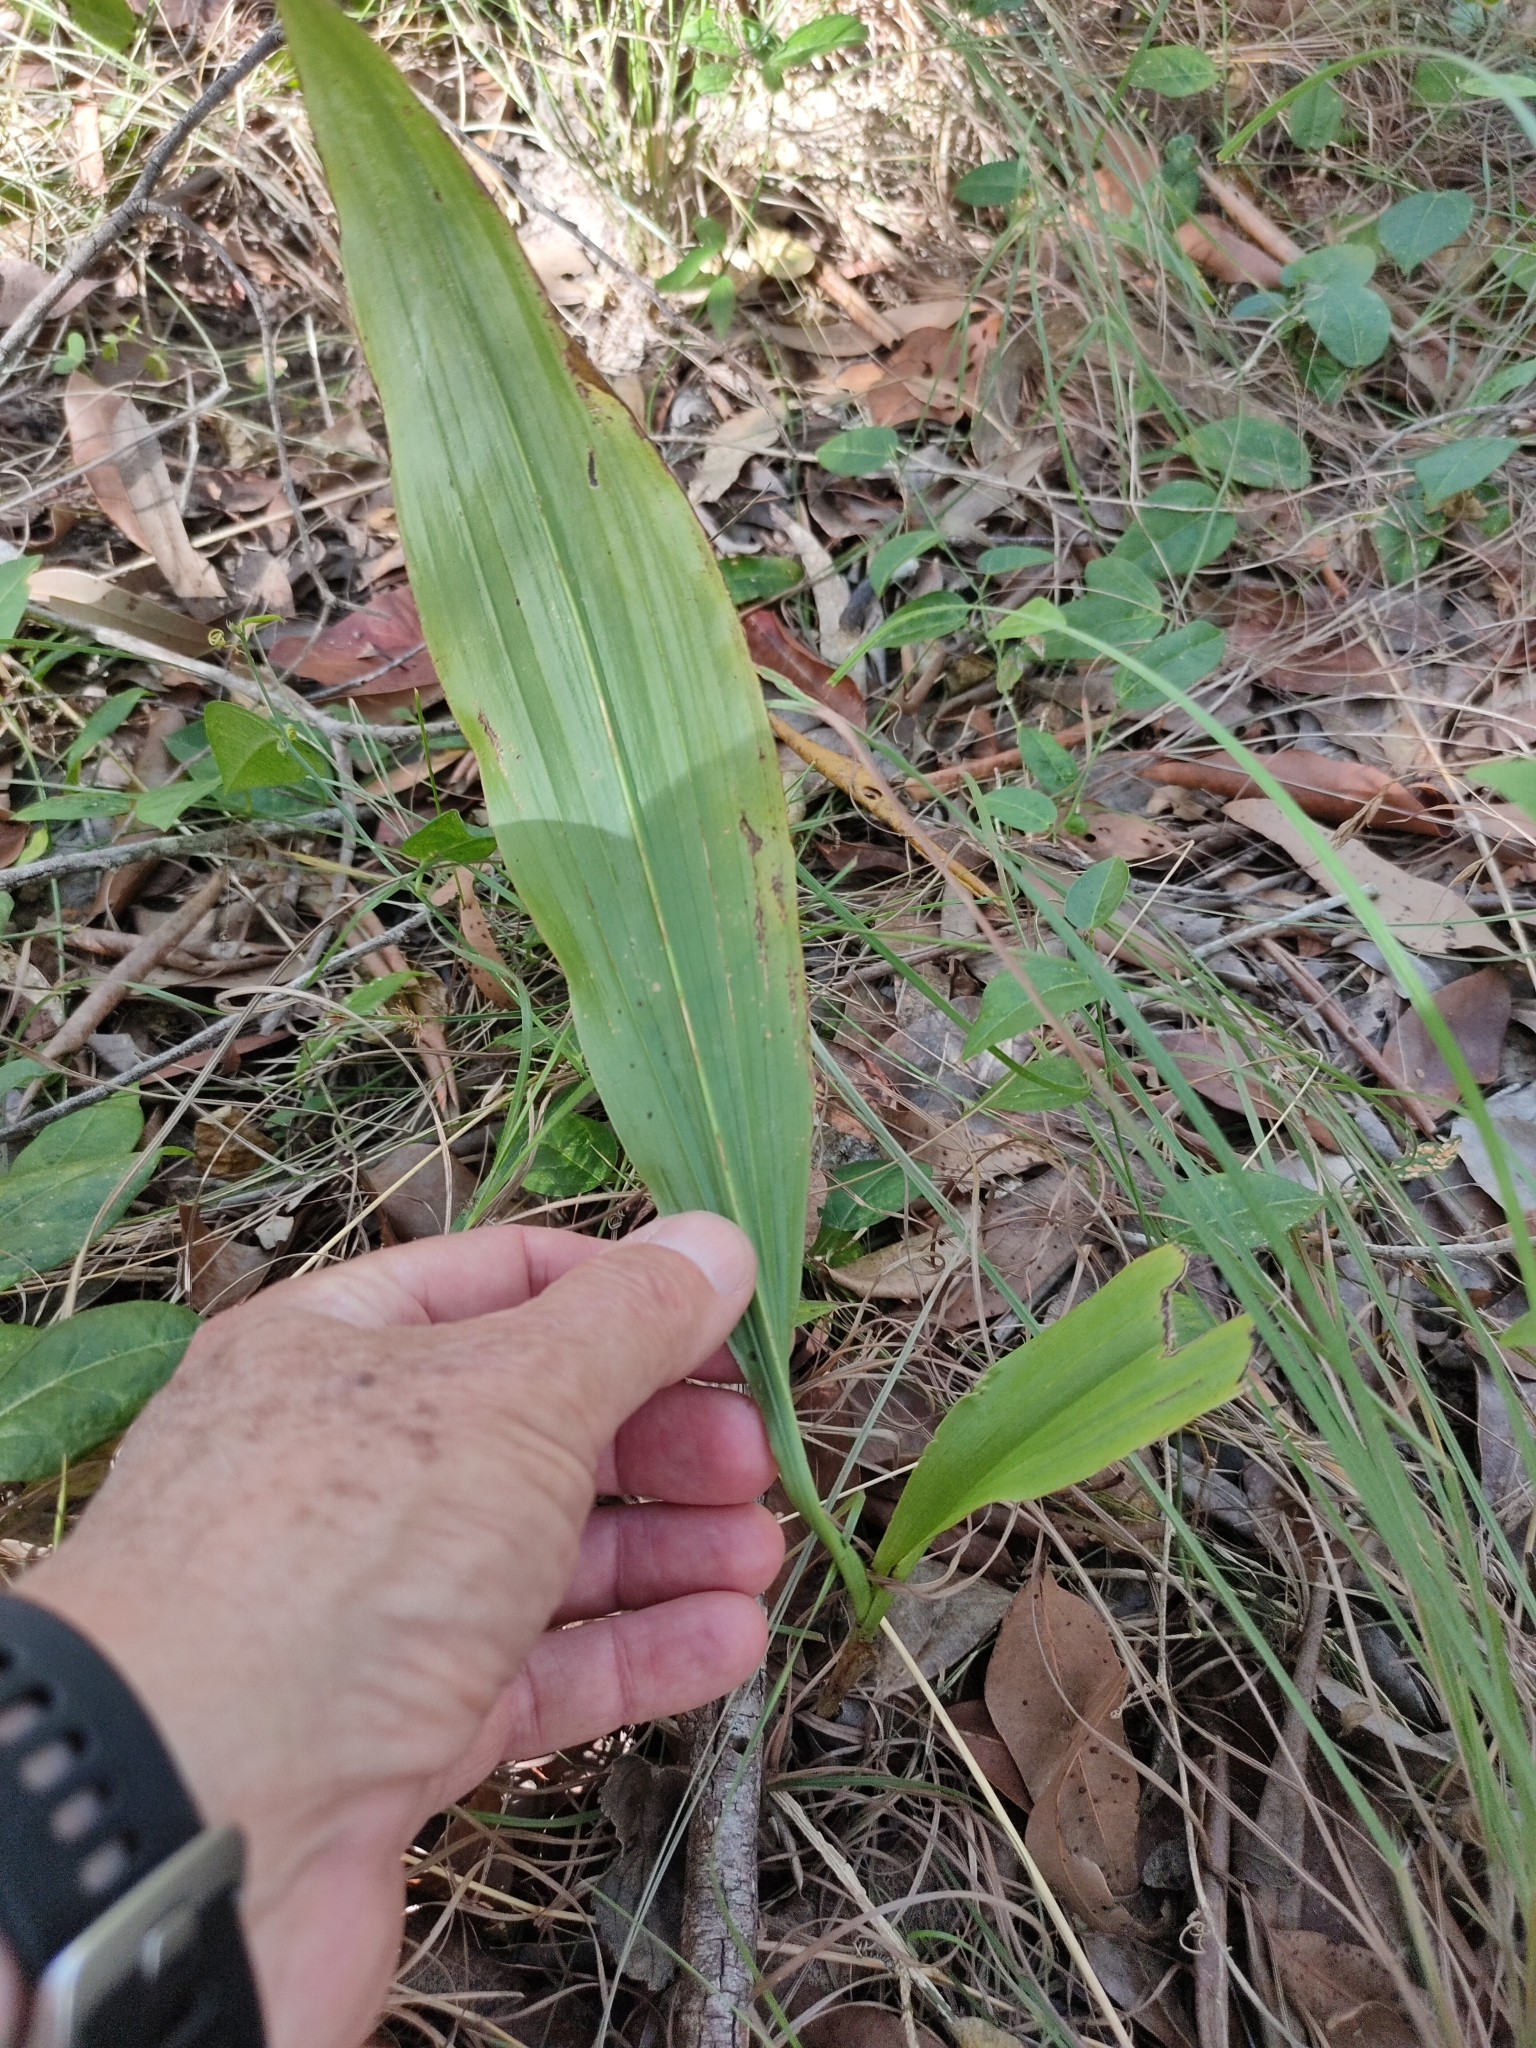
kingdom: Plantae
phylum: Tracheophyta
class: Liliopsida
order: Asparagales
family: Orchidaceae
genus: Eulophia
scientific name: Eulophia cernua
